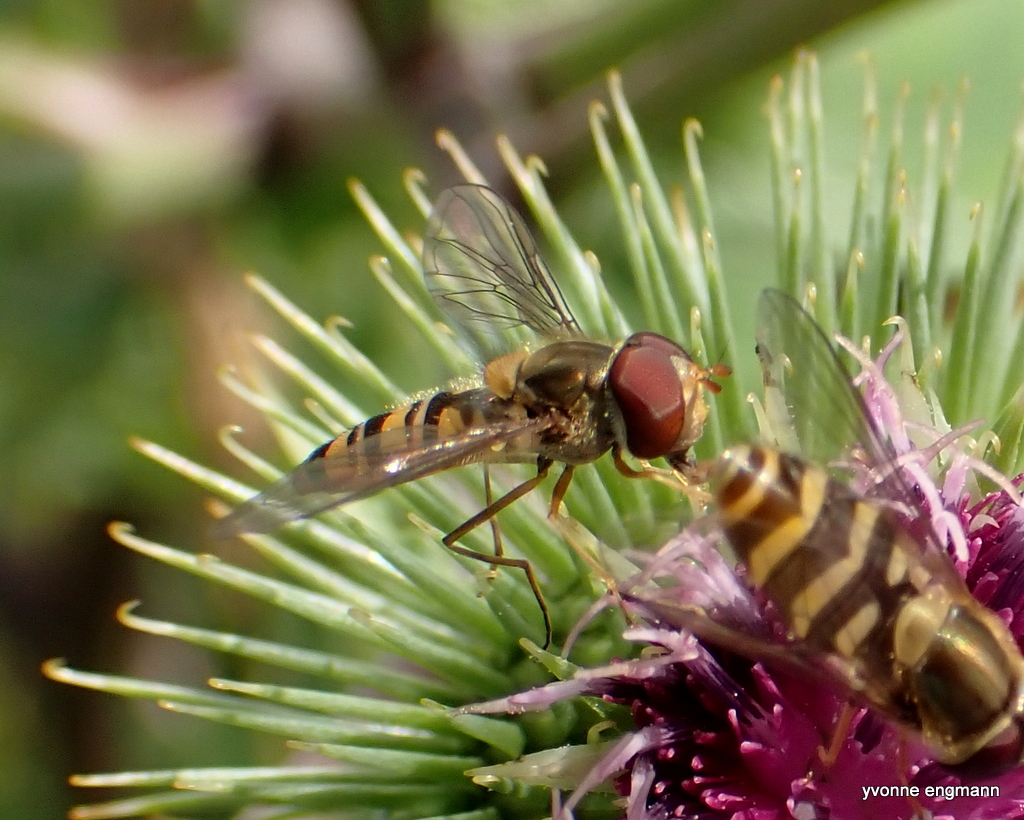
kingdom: Animalia
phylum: Arthropoda
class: Insecta
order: Diptera
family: Syrphidae
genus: Episyrphus
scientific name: Episyrphus balteatus
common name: Marmalade hoverfly
